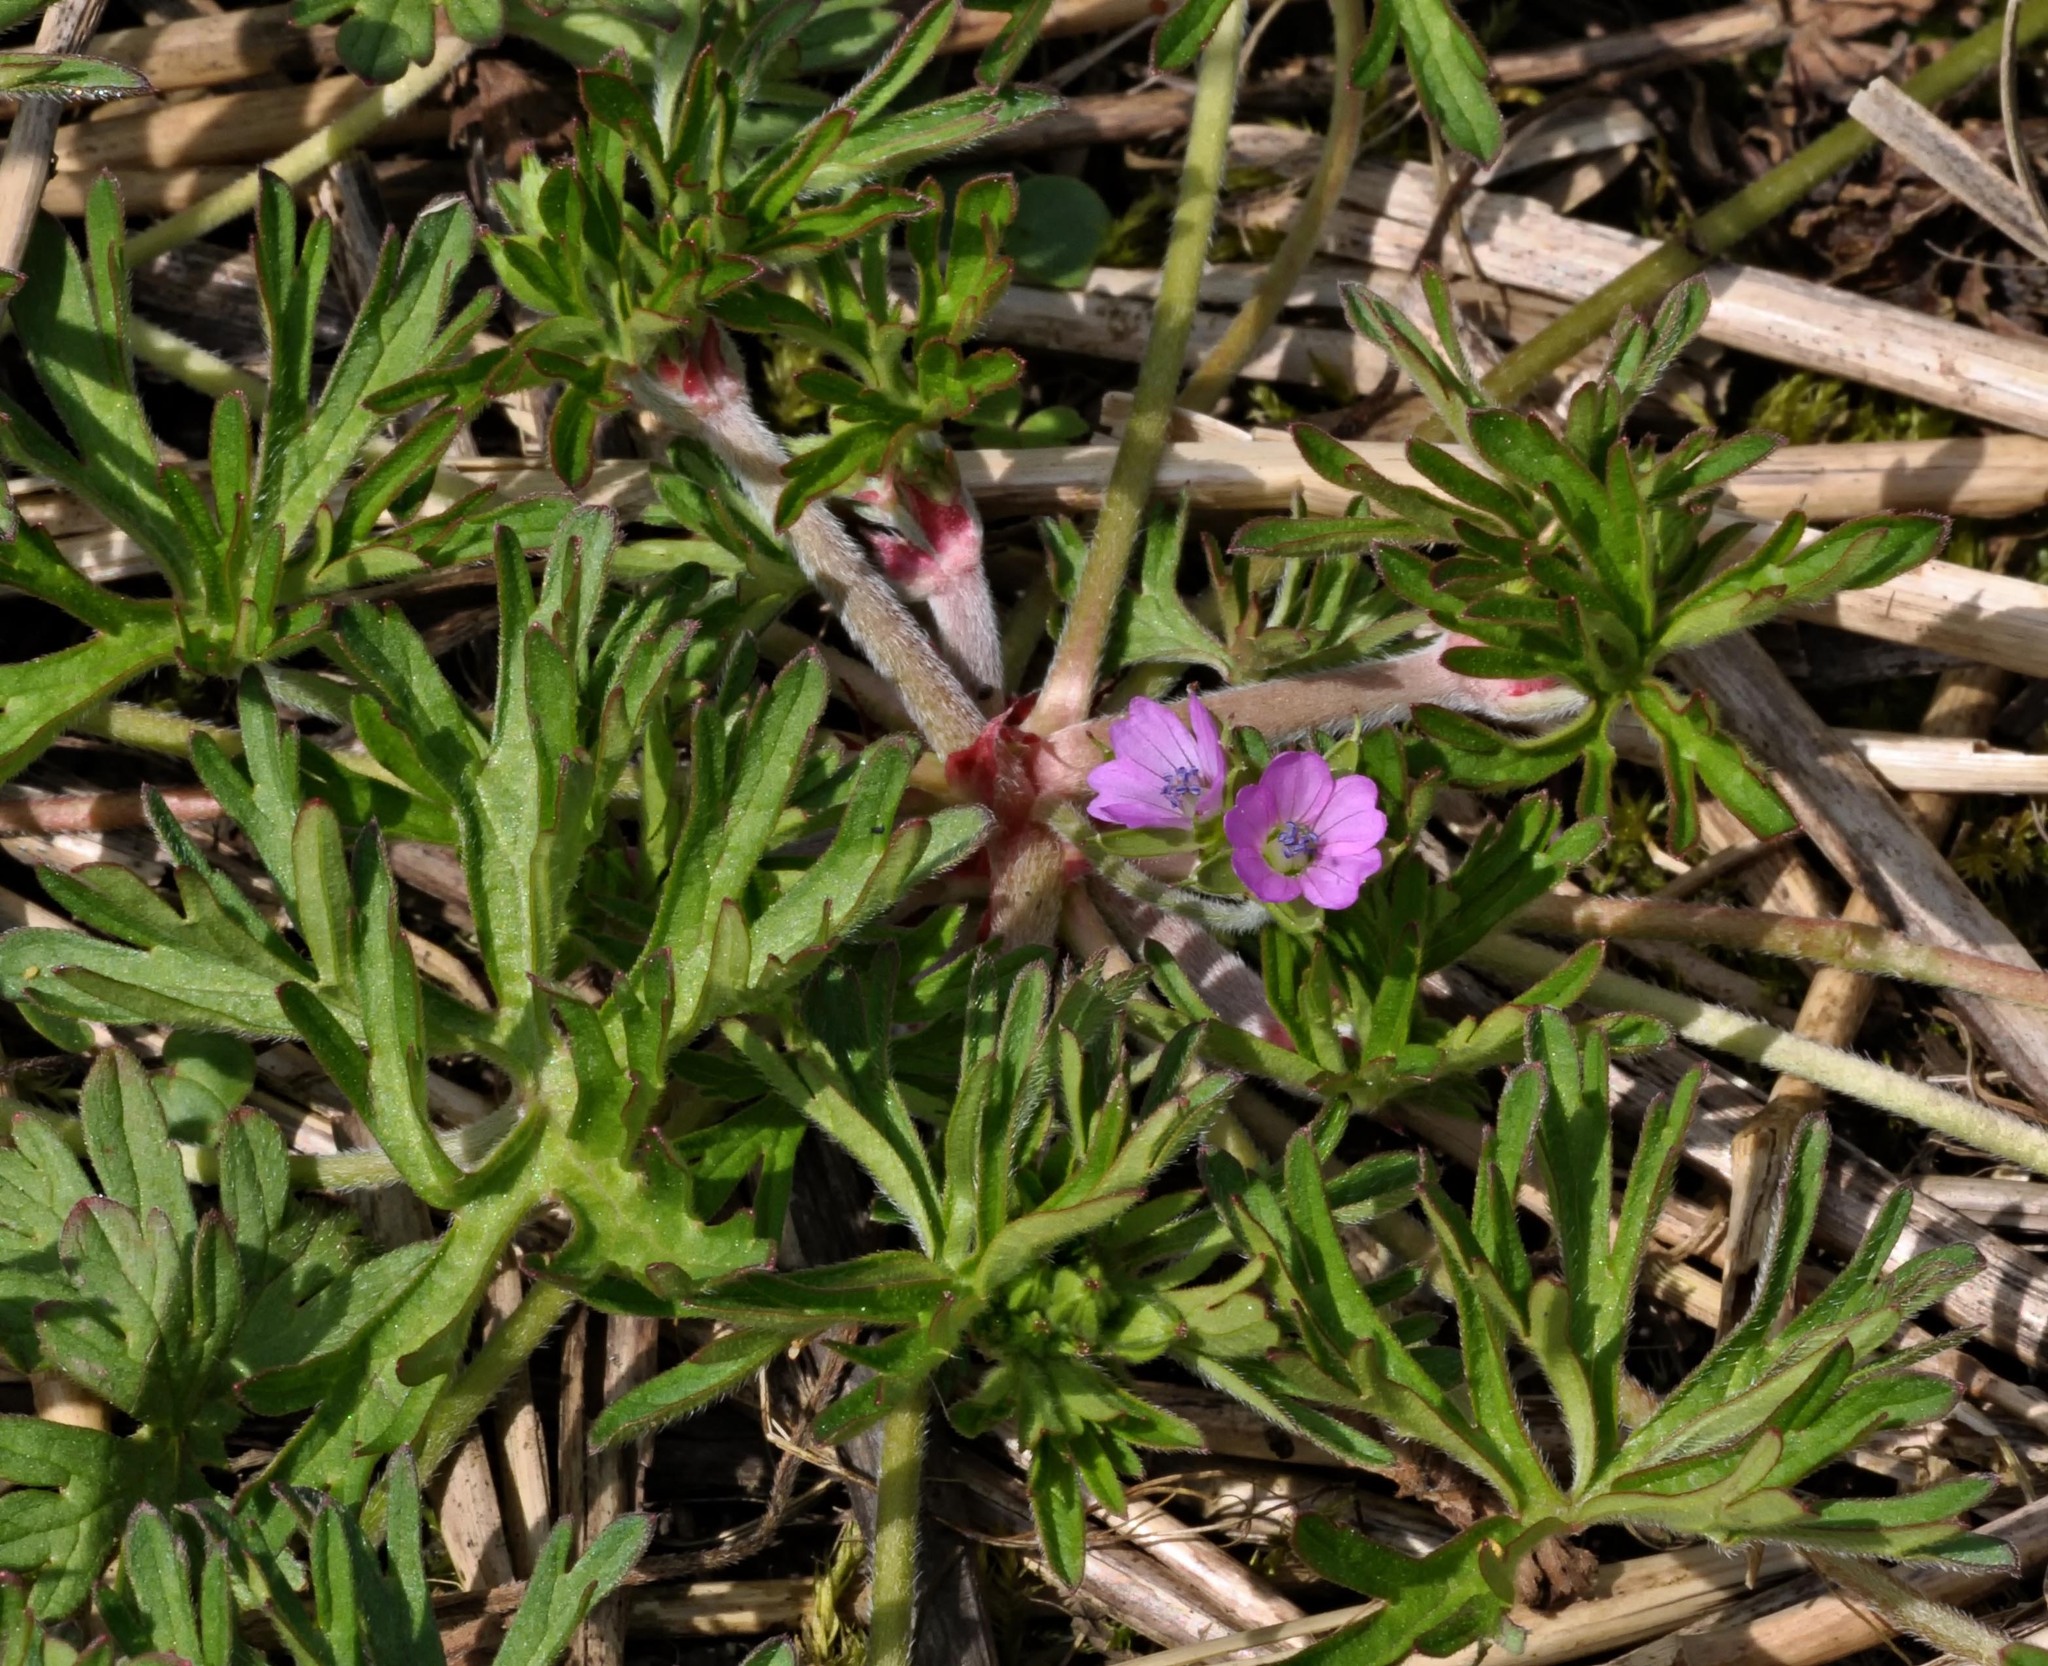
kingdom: Plantae
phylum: Tracheophyta
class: Magnoliopsida
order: Geraniales
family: Geraniaceae
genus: Geranium
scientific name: Geranium dissectum
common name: Cut-leaved crane's-bill
